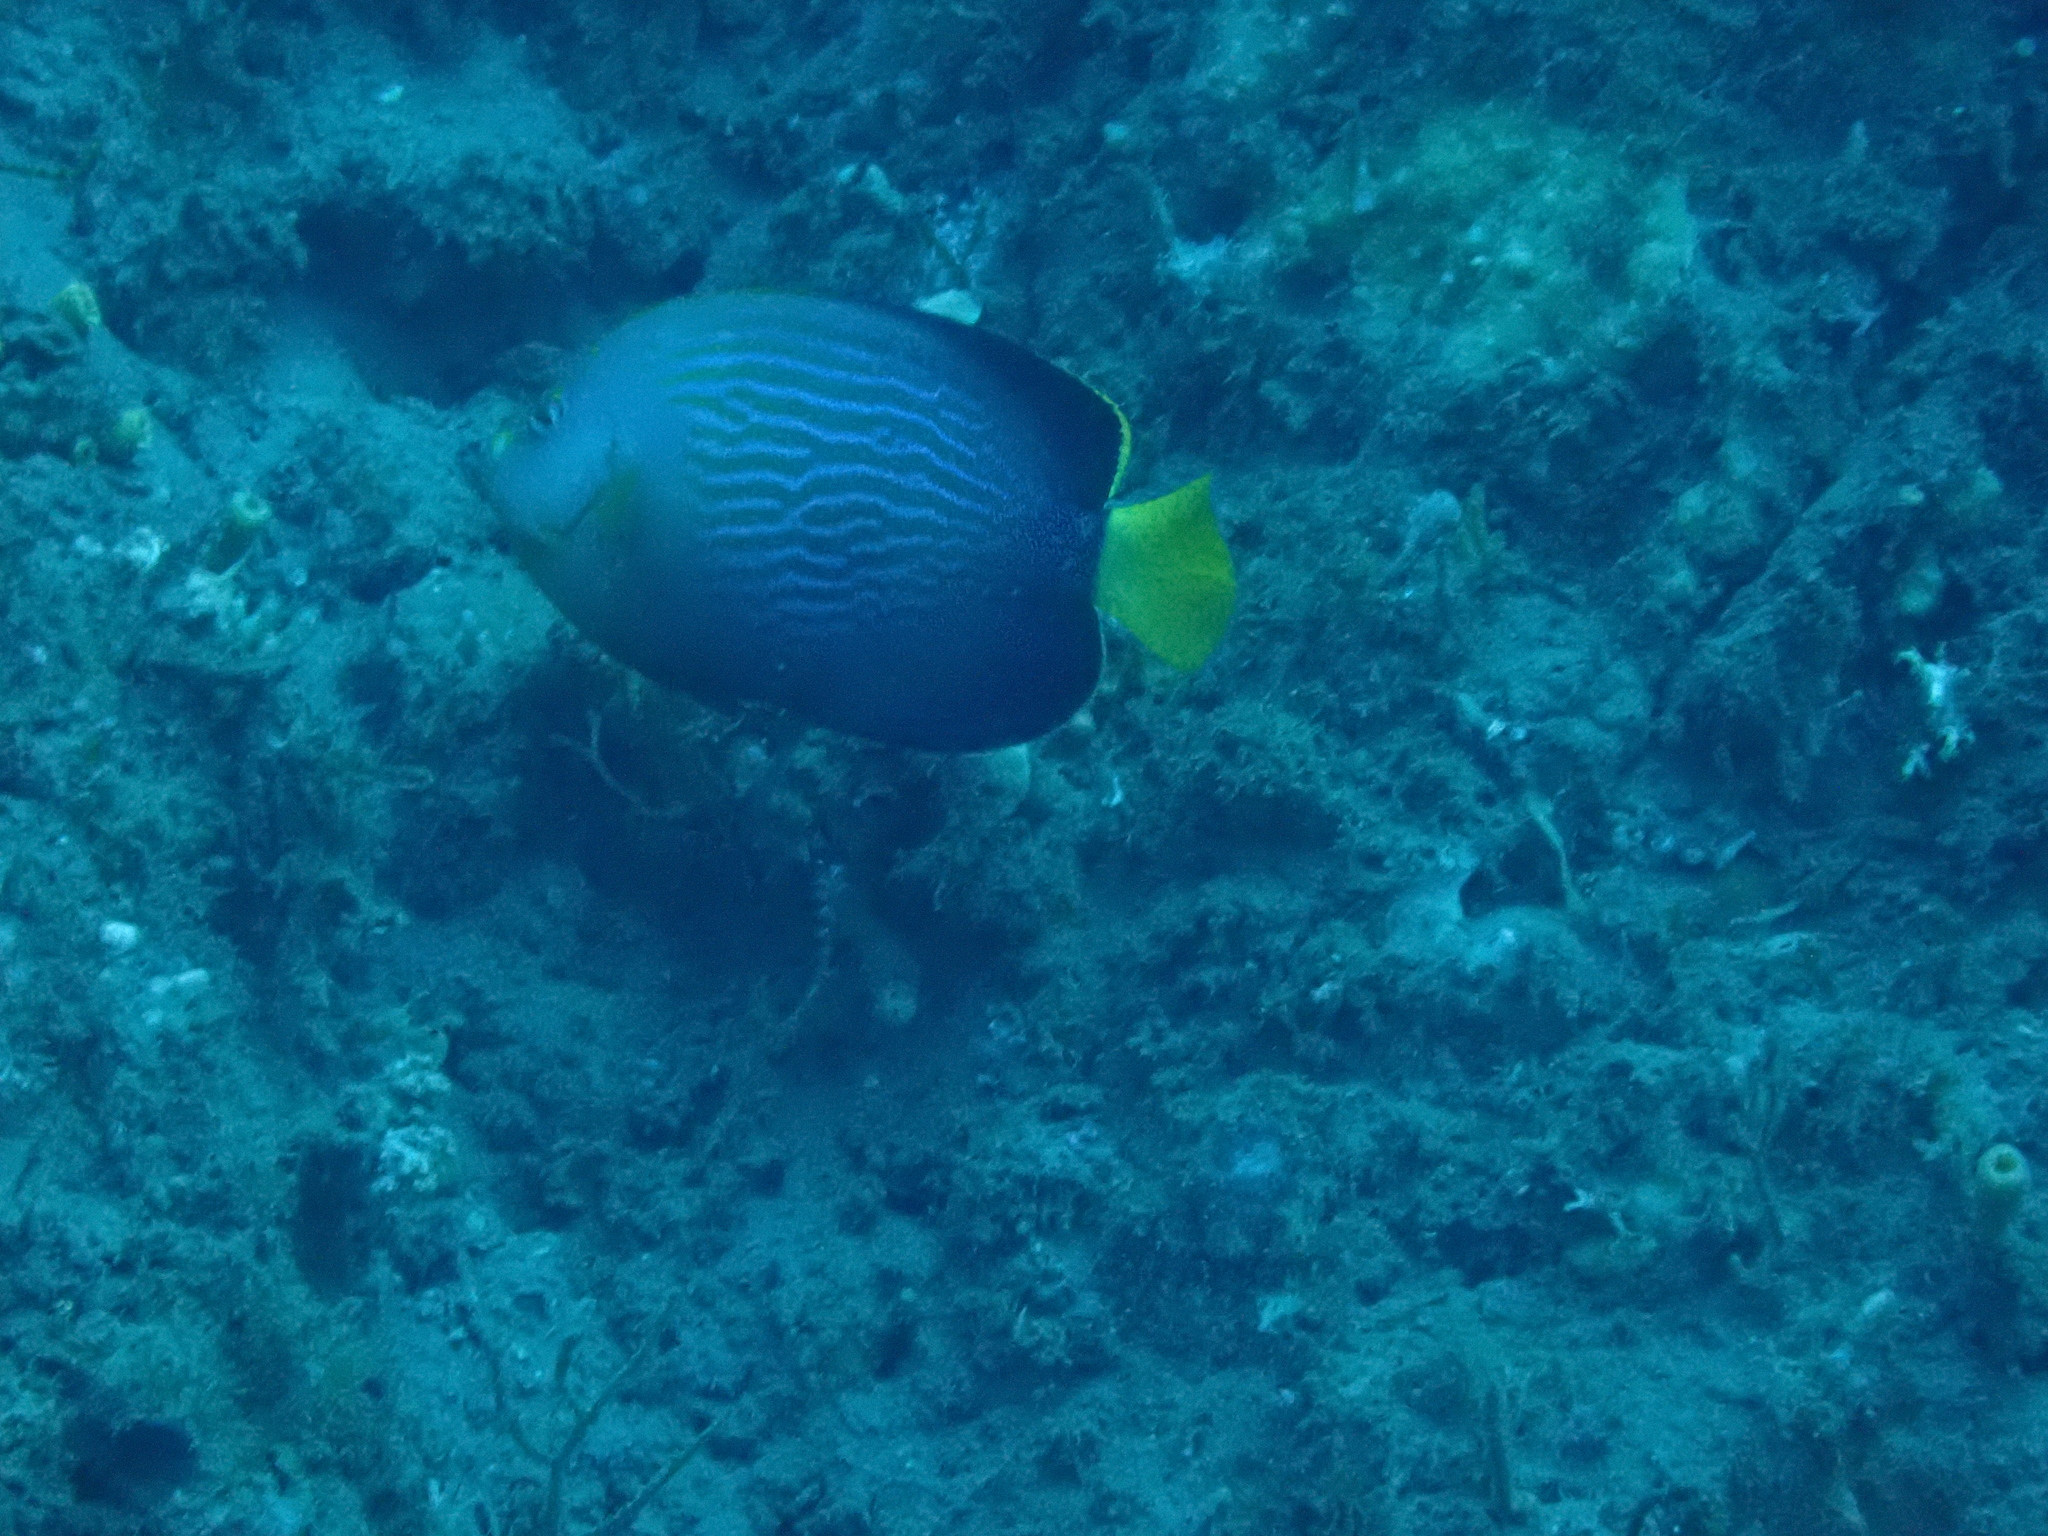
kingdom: Animalia
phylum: Chordata
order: Perciformes
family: Pomacanthidae
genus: Chaetodontoplus
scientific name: Chaetodontoplus cephalareticulatus
